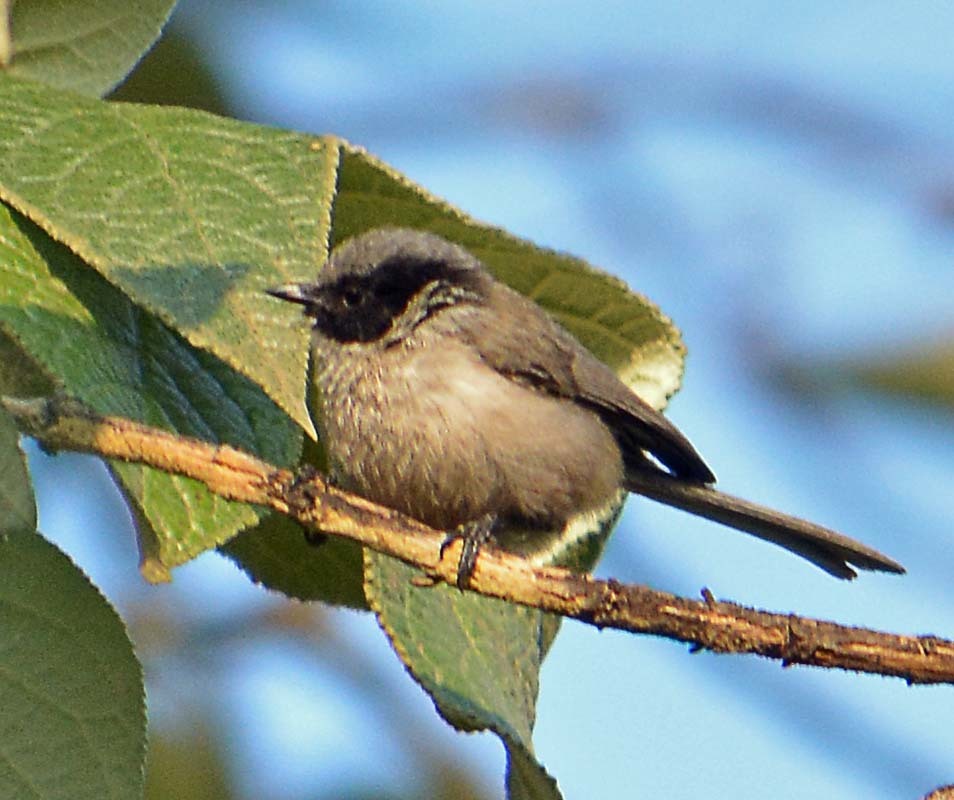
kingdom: Animalia
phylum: Chordata
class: Aves
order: Passeriformes
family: Aegithalidae
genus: Psaltriparus
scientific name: Psaltriparus minimus
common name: American bushtit
